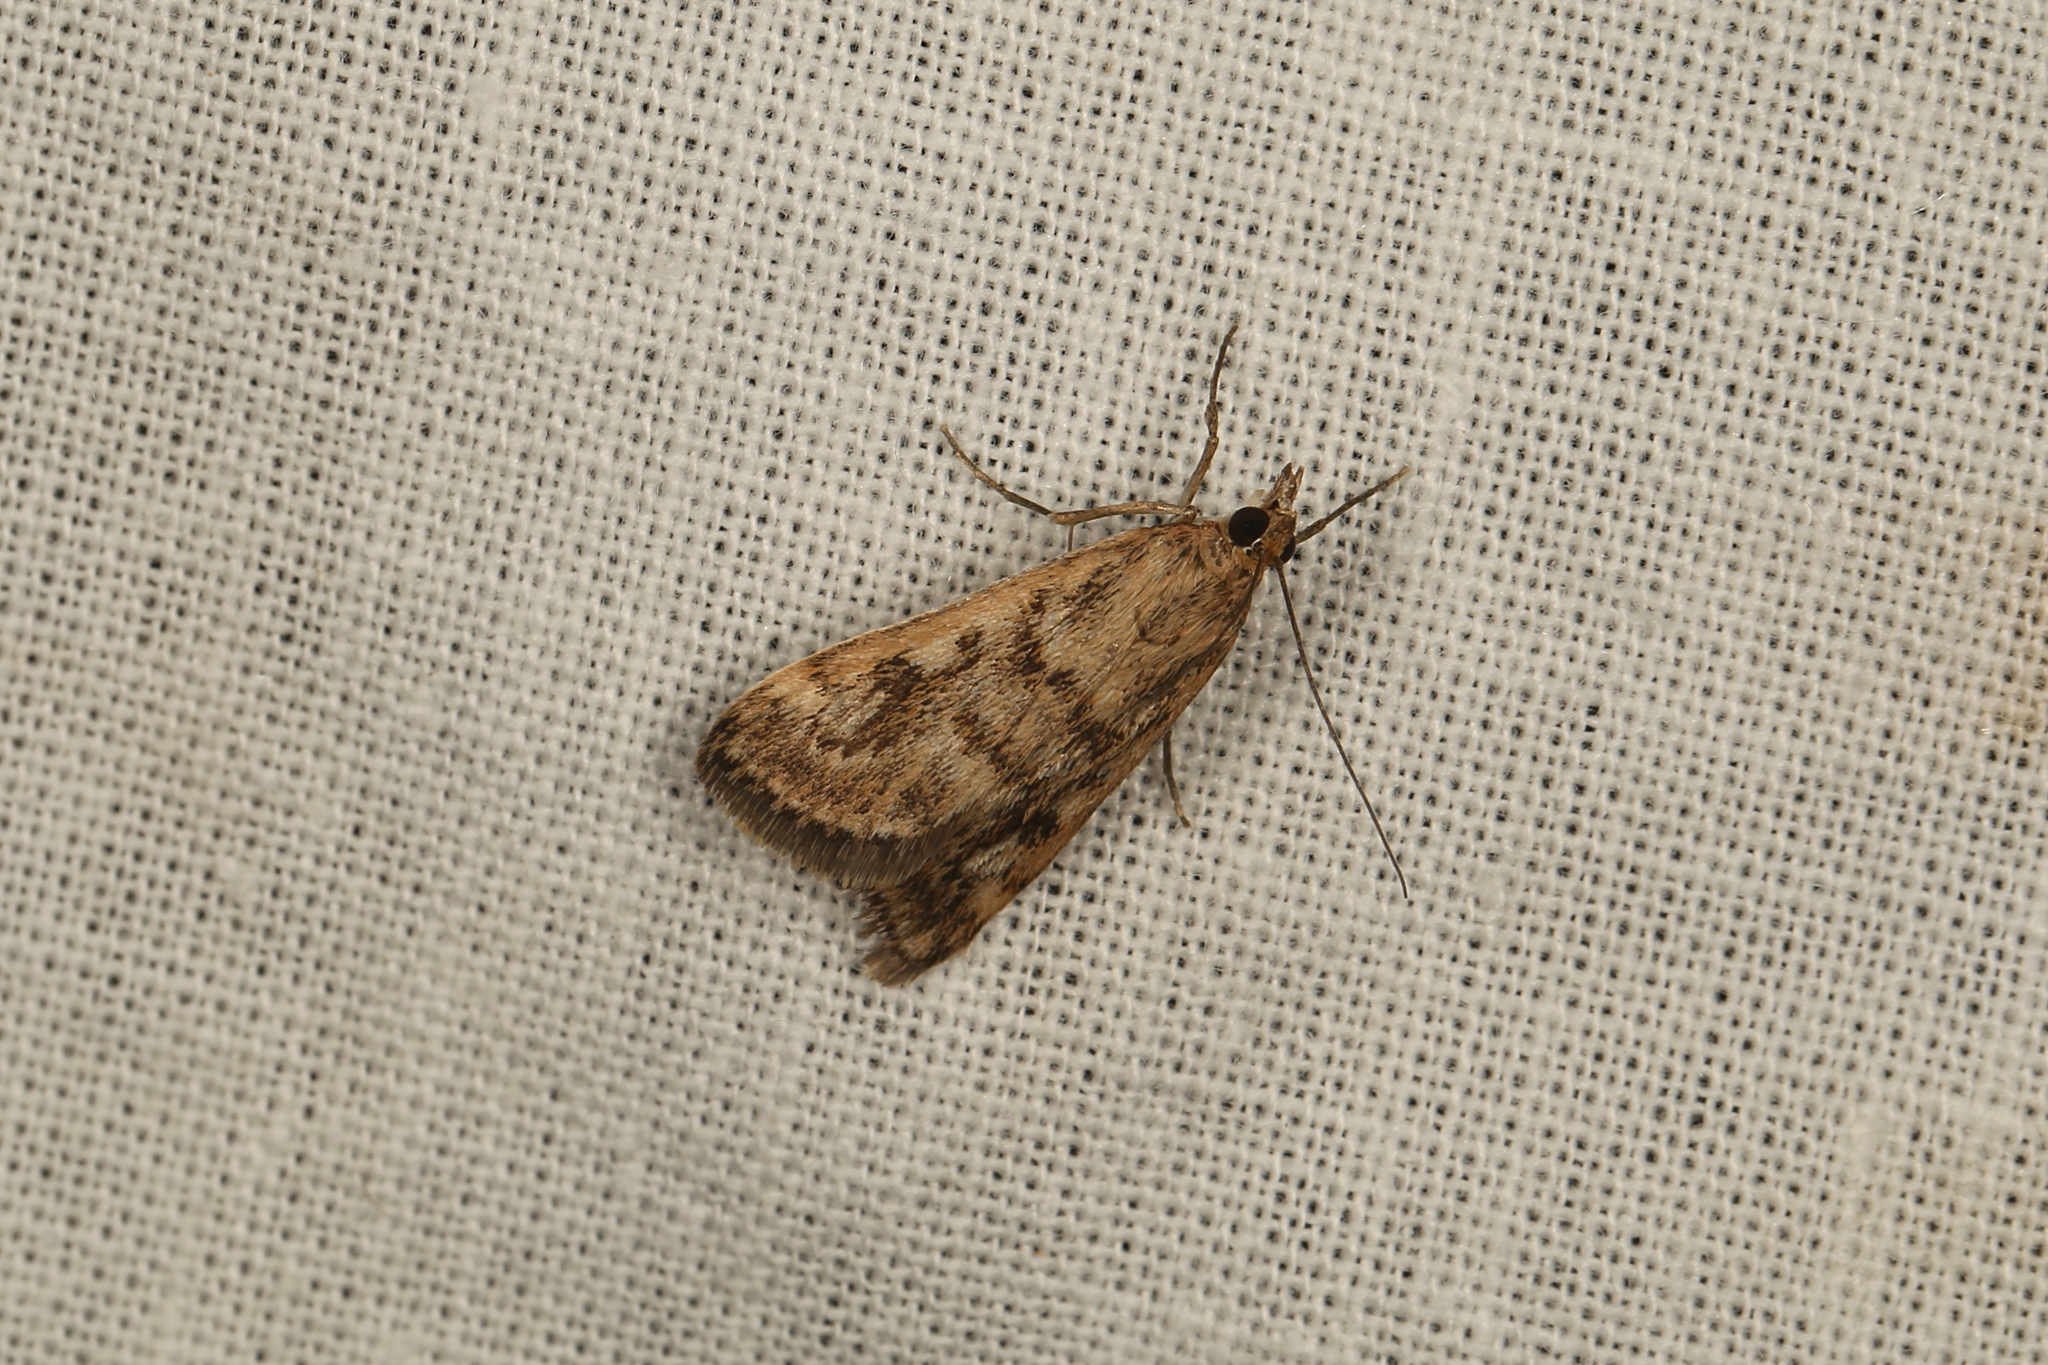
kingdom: Animalia
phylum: Arthropoda
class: Insecta
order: Lepidoptera
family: Crambidae
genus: Achyra
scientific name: Achyra affinitalis
